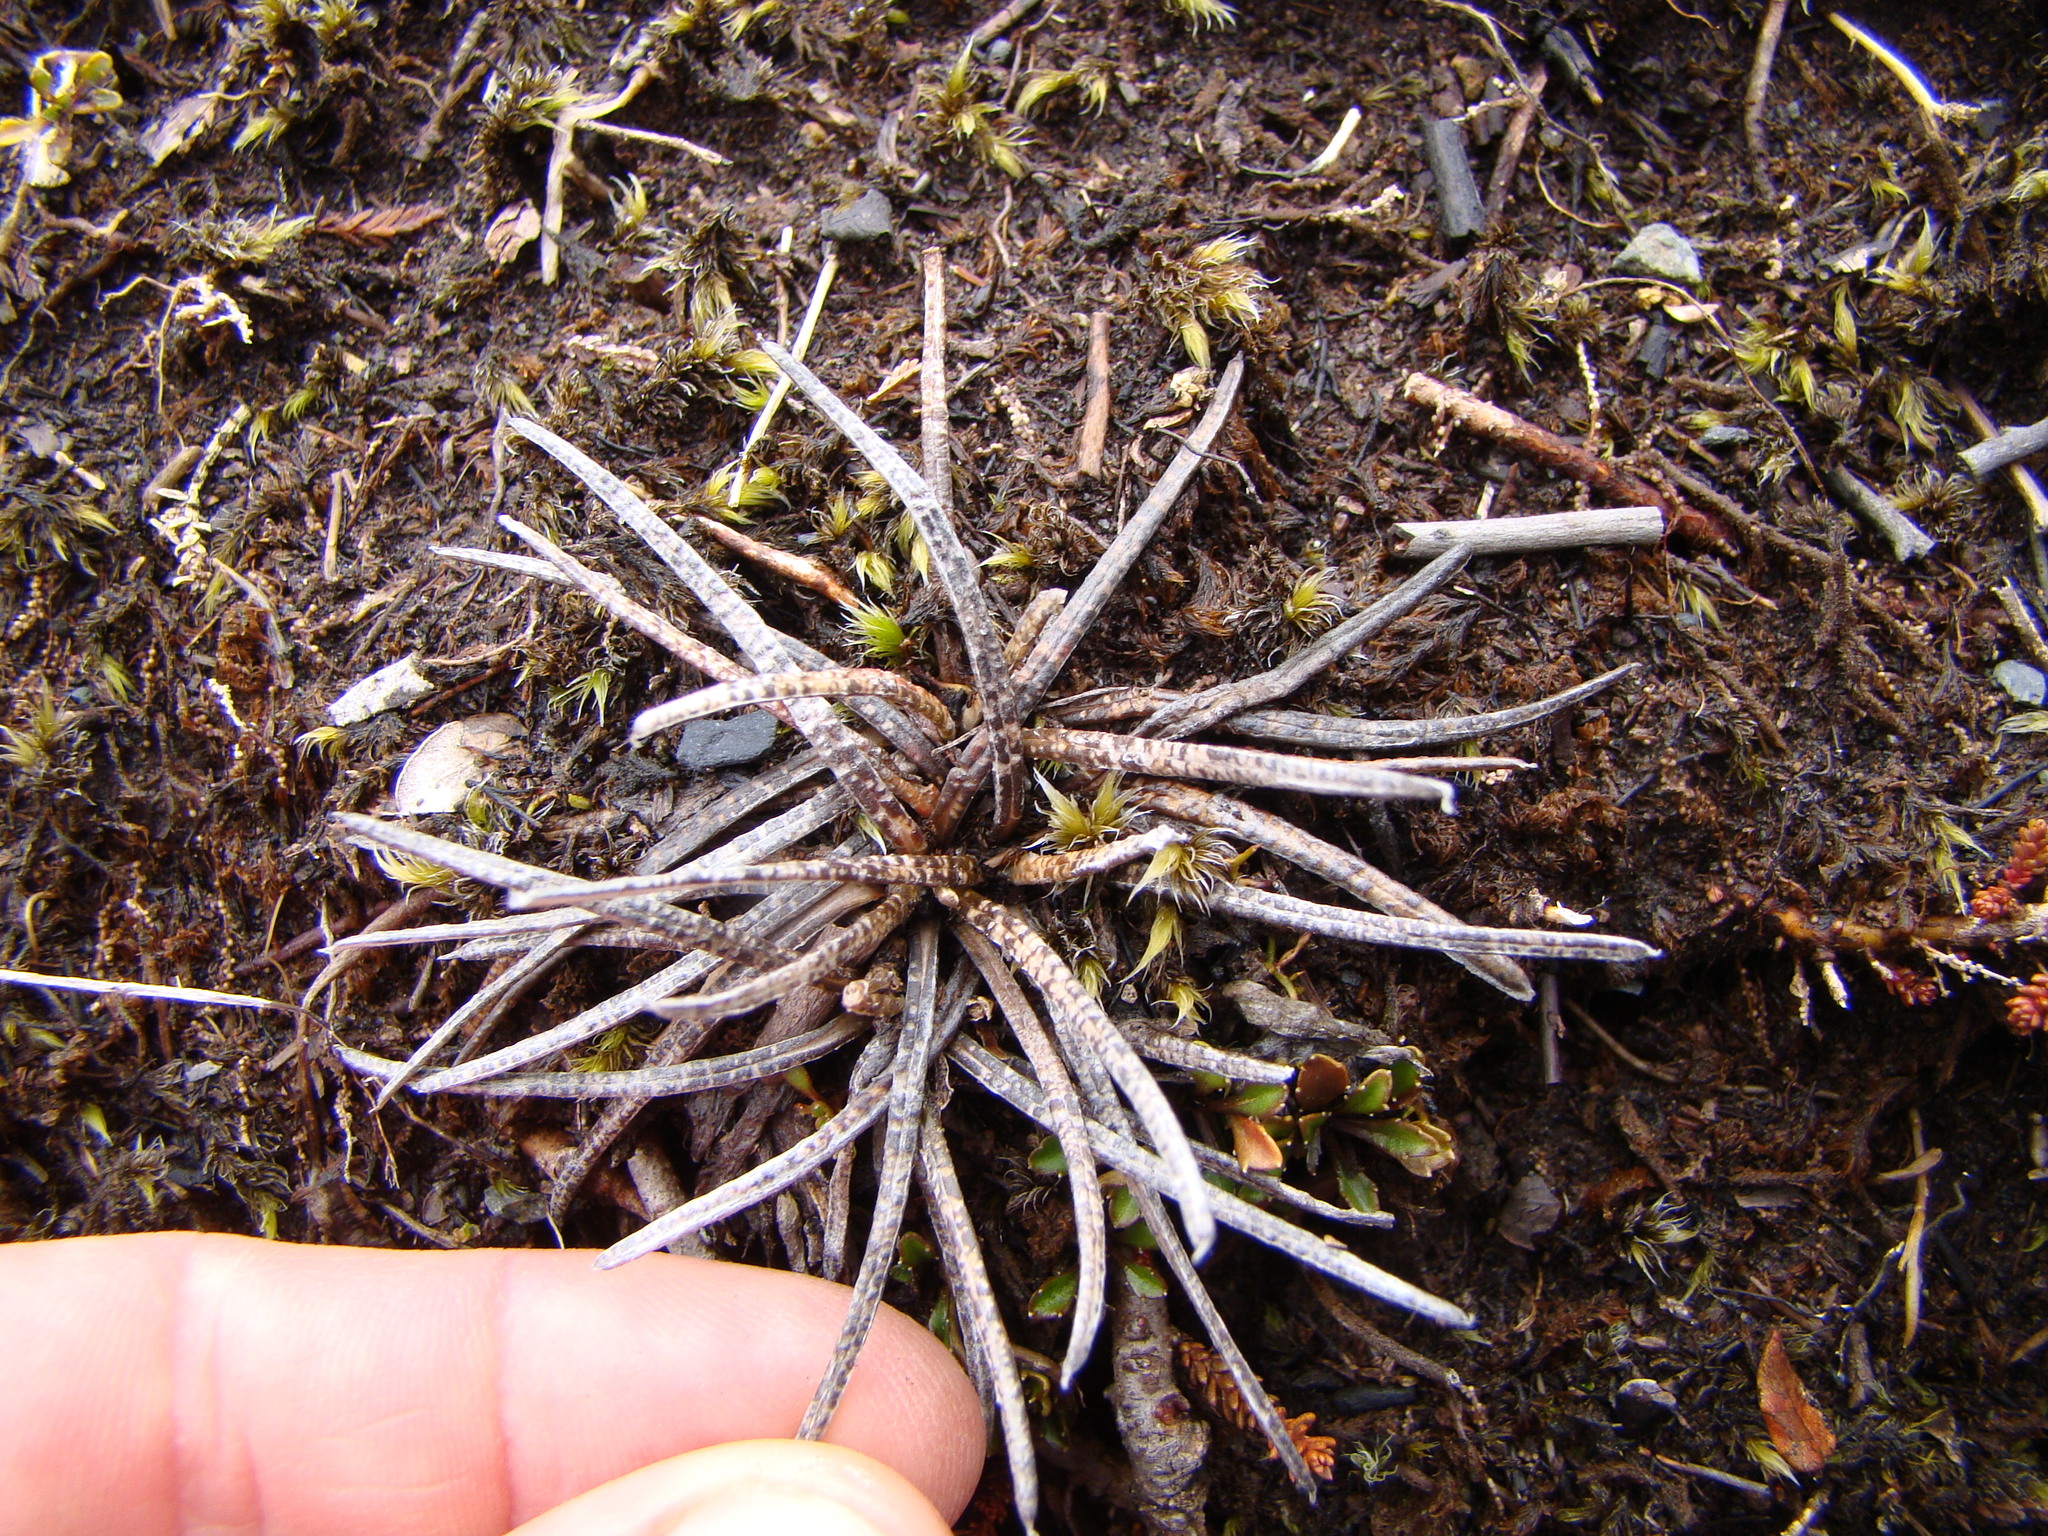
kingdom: Plantae
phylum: Tracheophyta
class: Magnoliopsida
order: Asterales
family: Asteraceae
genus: Celmisia
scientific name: Celmisia gracilenta
